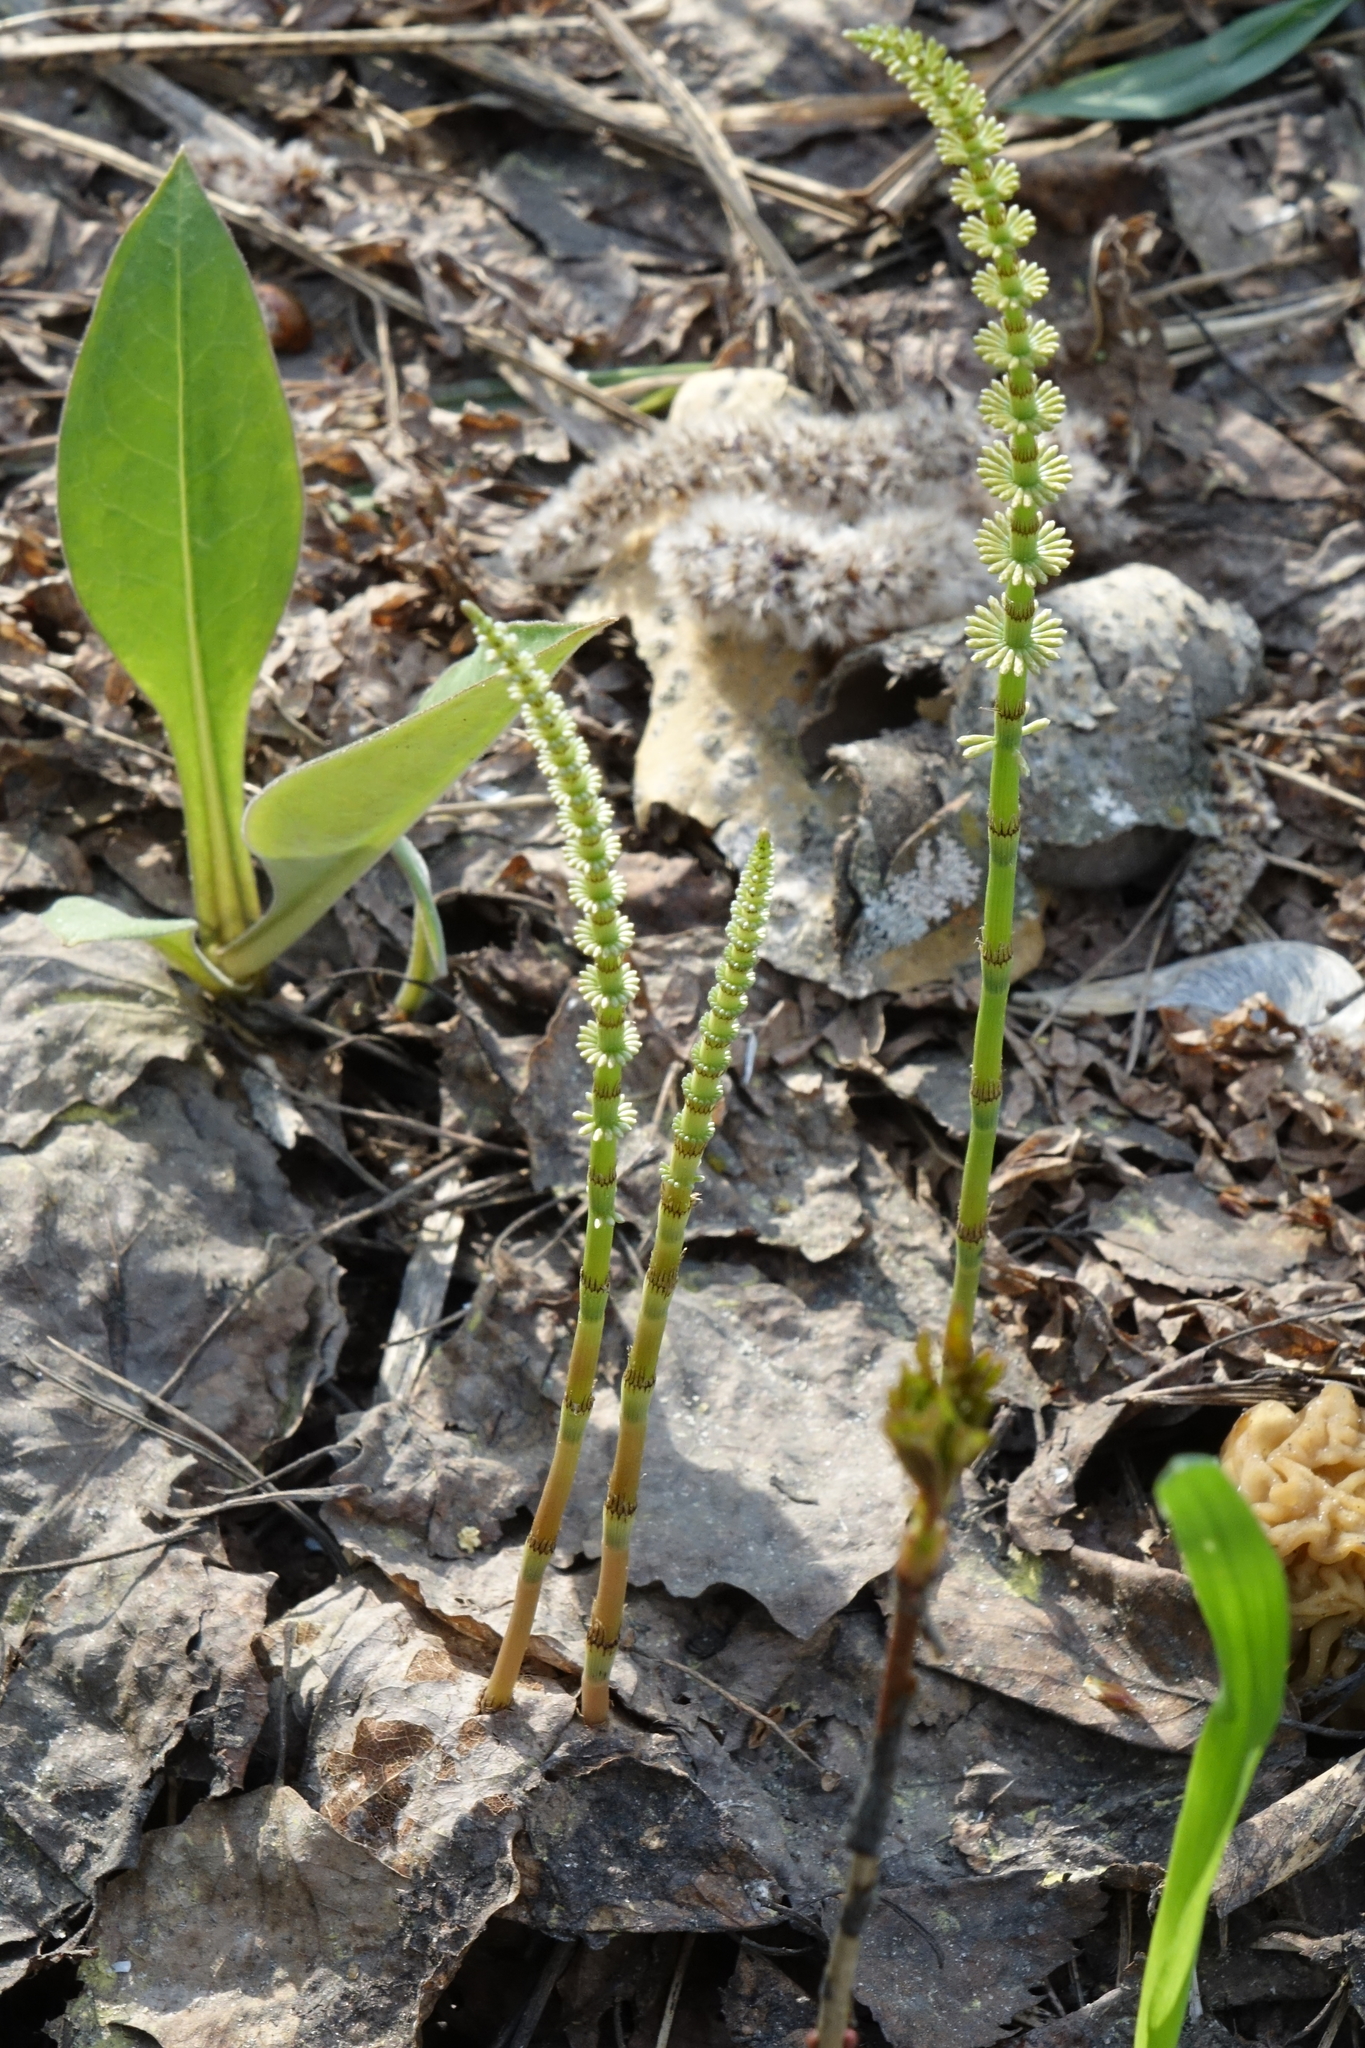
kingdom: Plantae
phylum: Tracheophyta
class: Polypodiopsida
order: Equisetales
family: Equisetaceae
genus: Equisetum
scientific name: Equisetum pratense
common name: Meadow horsetail
